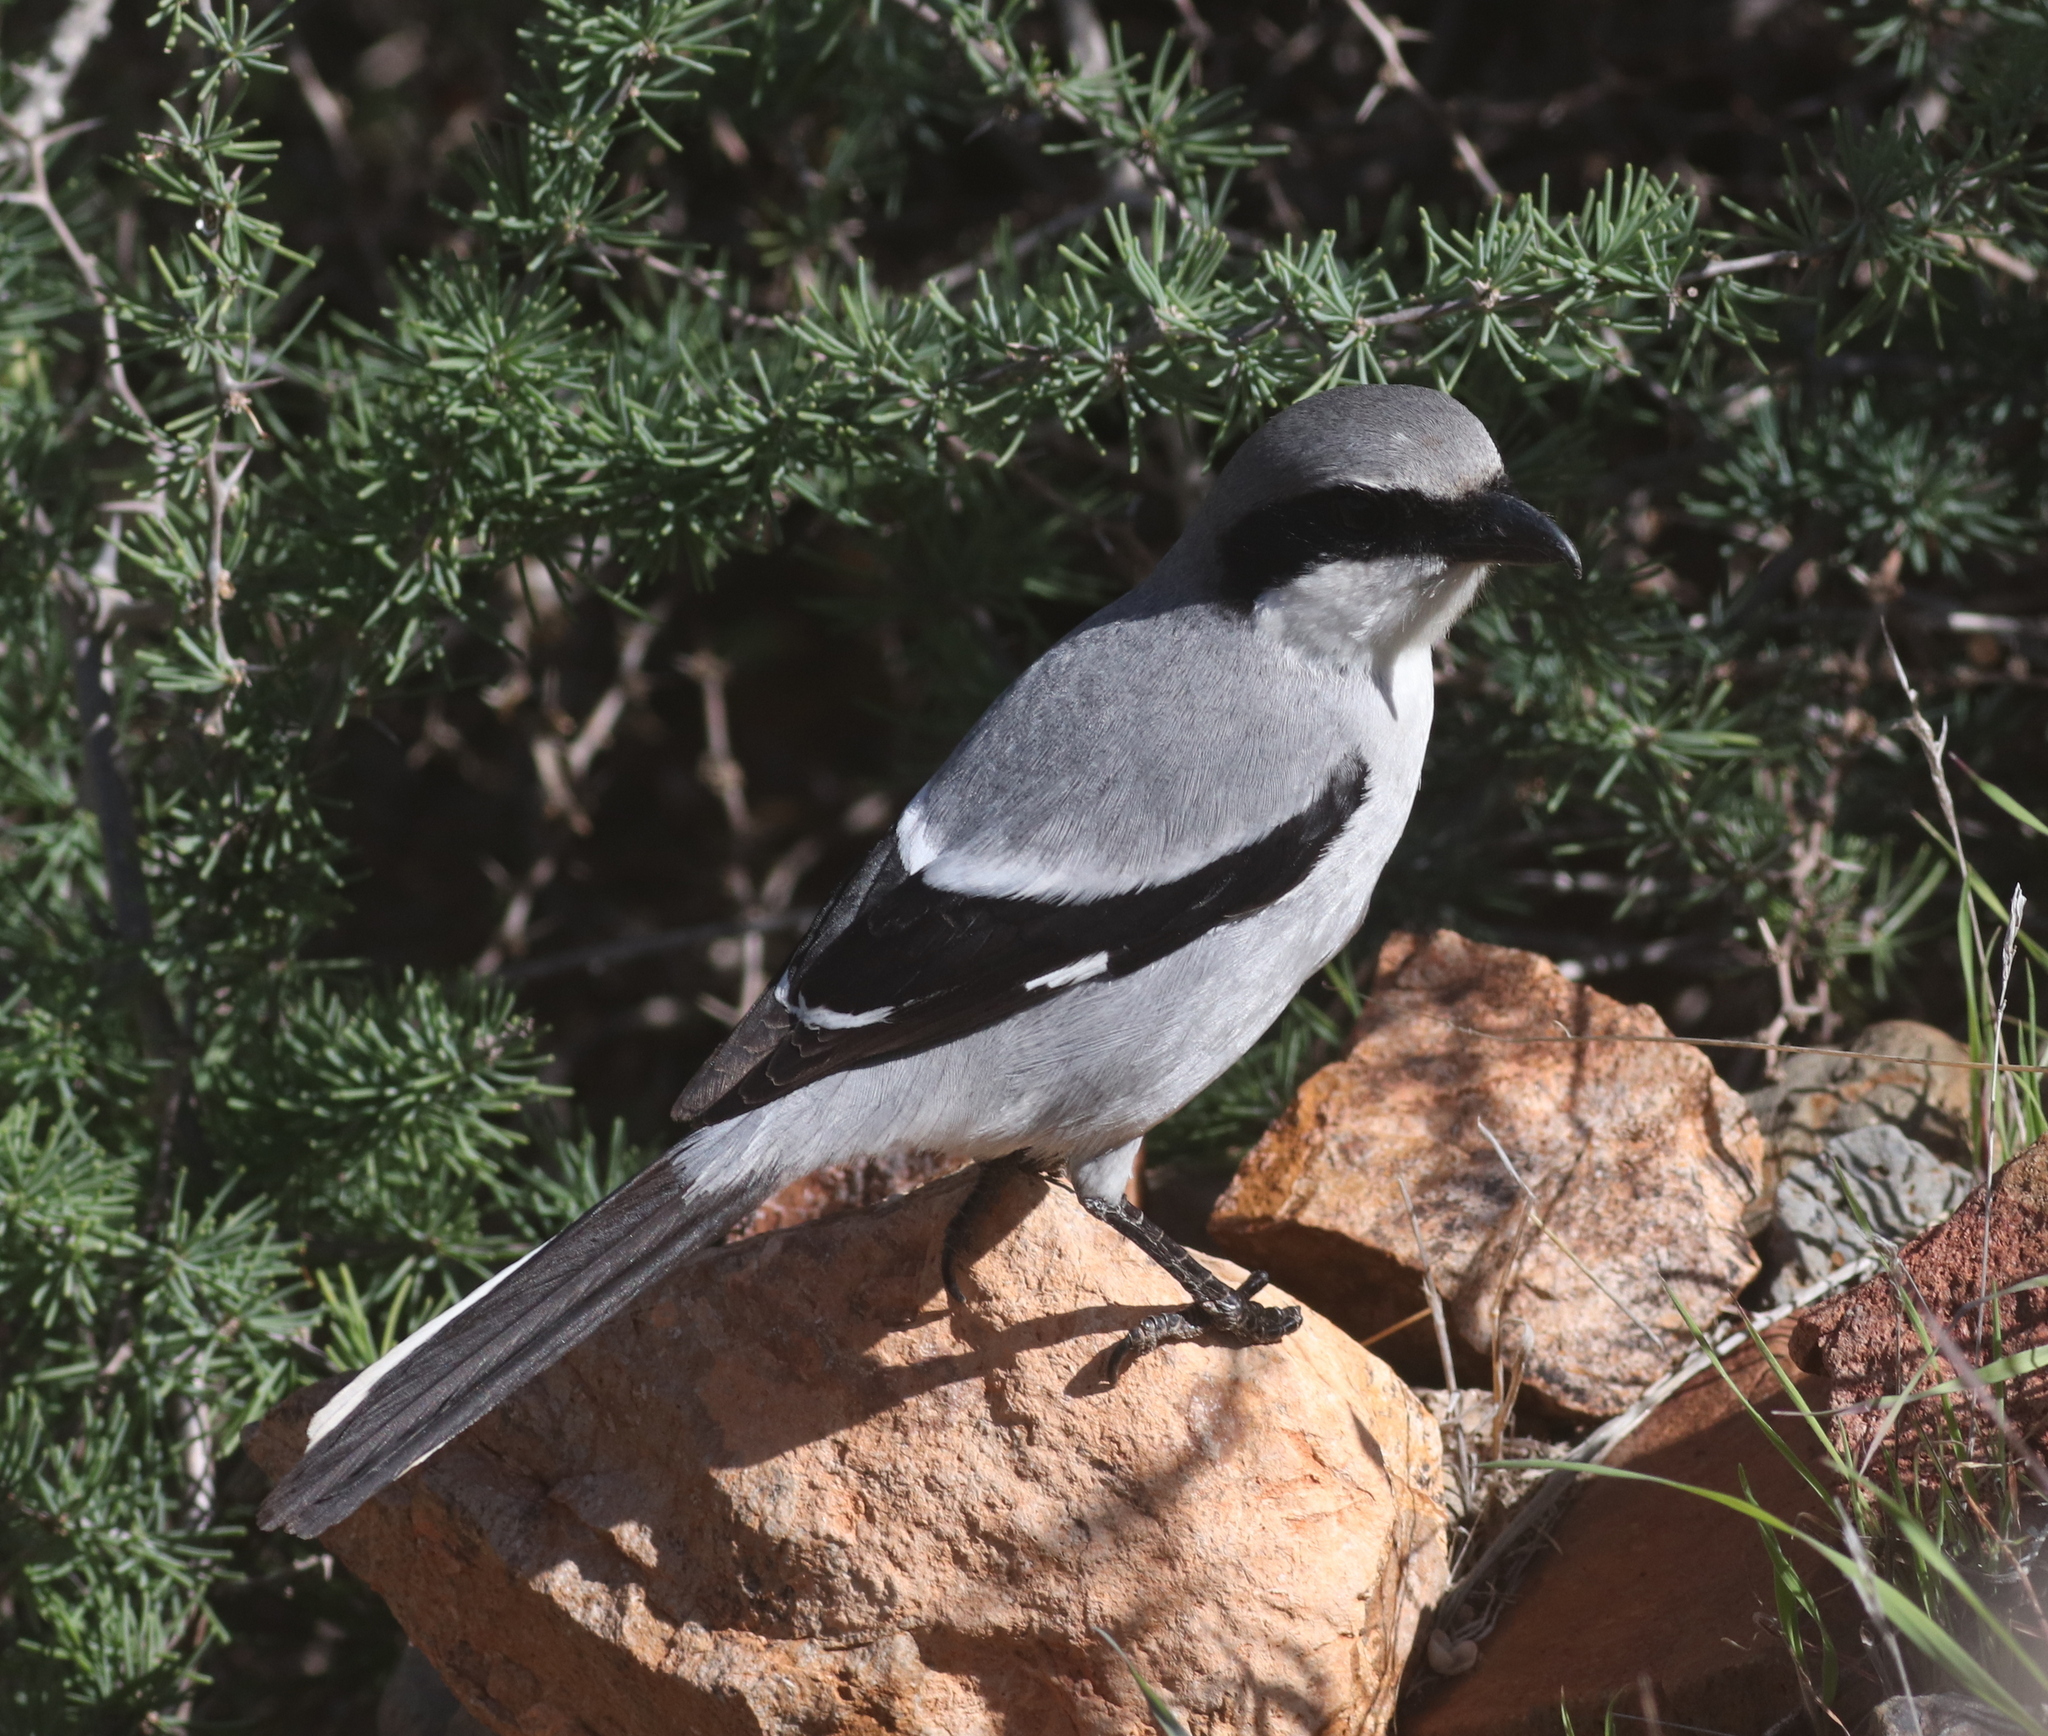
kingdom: Animalia
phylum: Chordata
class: Aves
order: Passeriformes
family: Laniidae
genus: Lanius
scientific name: Lanius excubitor
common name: Great grey shrike
